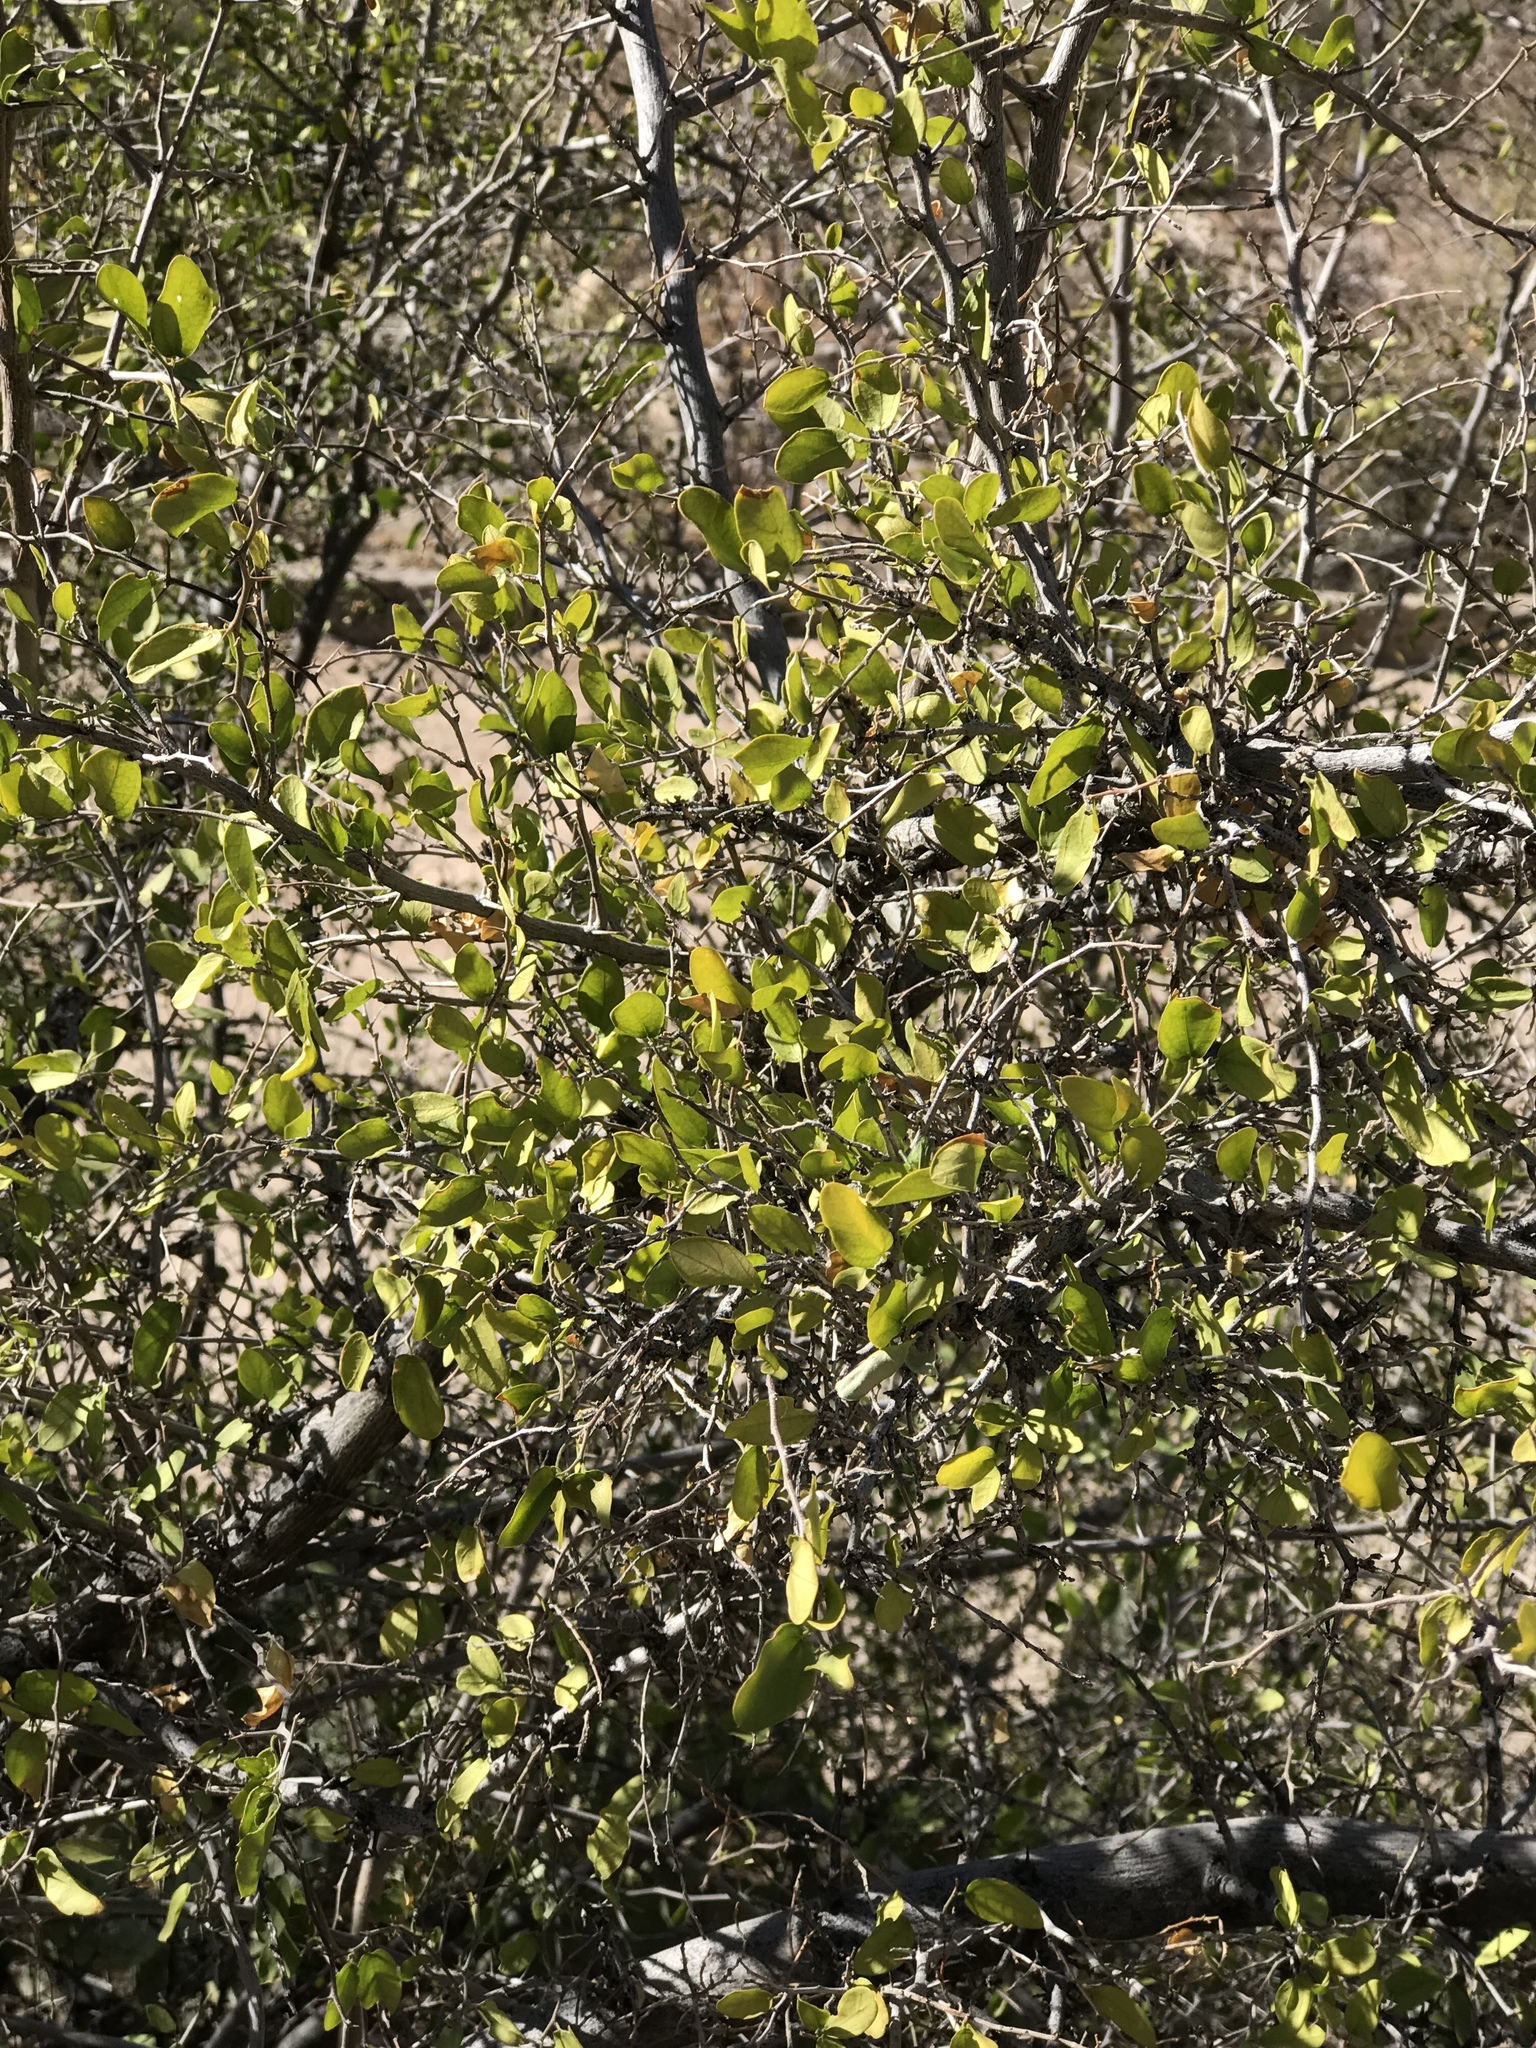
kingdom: Plantae
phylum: Tracheophyta
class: Magnoliopsida
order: Garryales
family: Garryaceae
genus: Garrya
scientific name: Garrya wrightii
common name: Wright's silktassel
